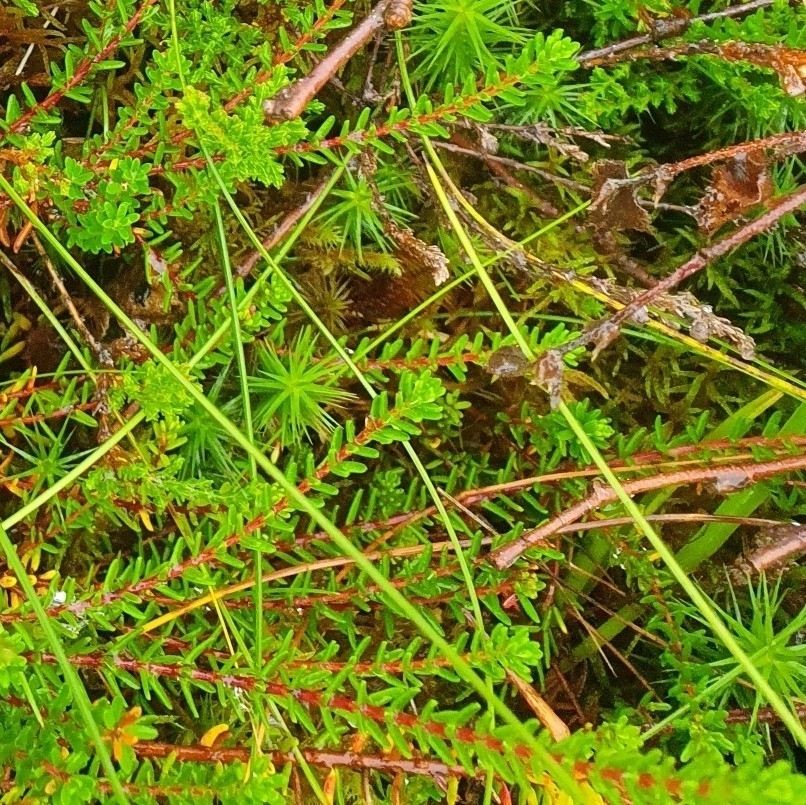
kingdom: Plantae
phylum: Tracheophyta
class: Magnoliopsida
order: Ericales
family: Ericaceae
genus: Empetrum
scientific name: Empetrum nigrum
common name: Black crowberry
